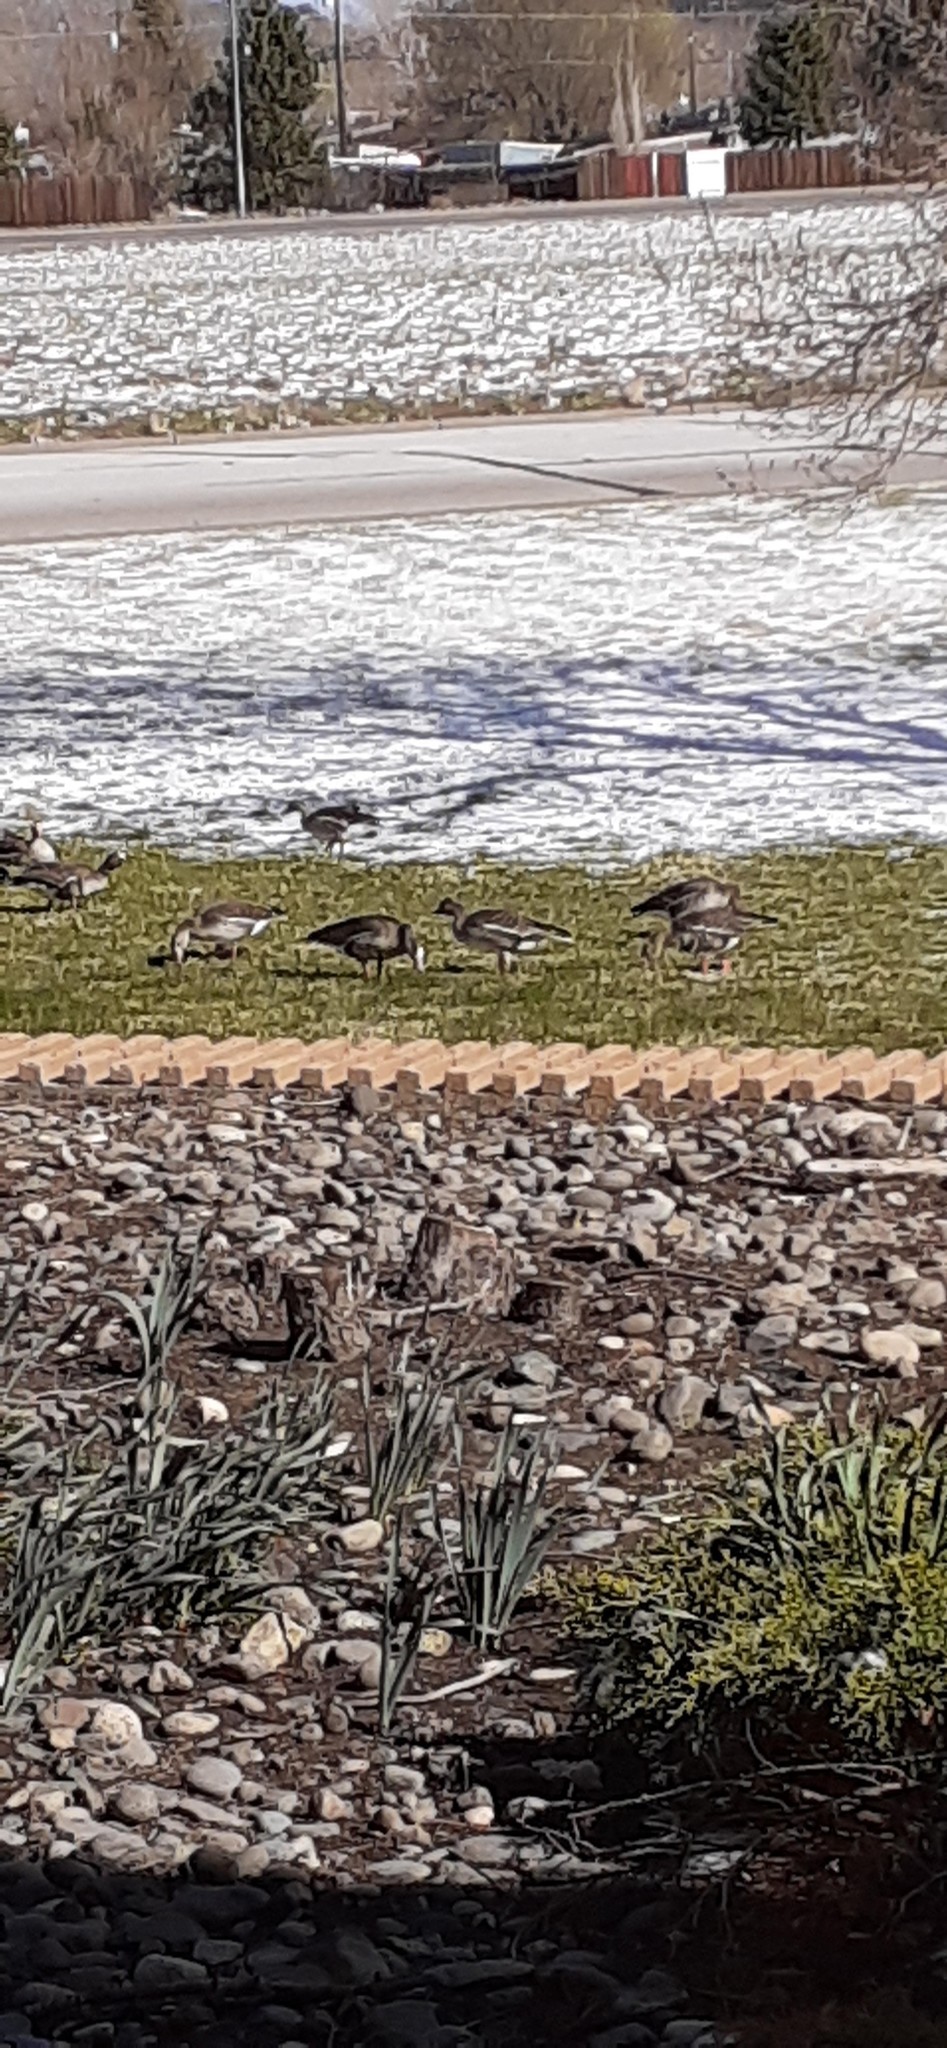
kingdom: Animalia
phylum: Chordata
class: Aves
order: Anseriformes
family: Anatidae
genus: Anser
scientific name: Anser albifrons
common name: Greater white-fronted goose
